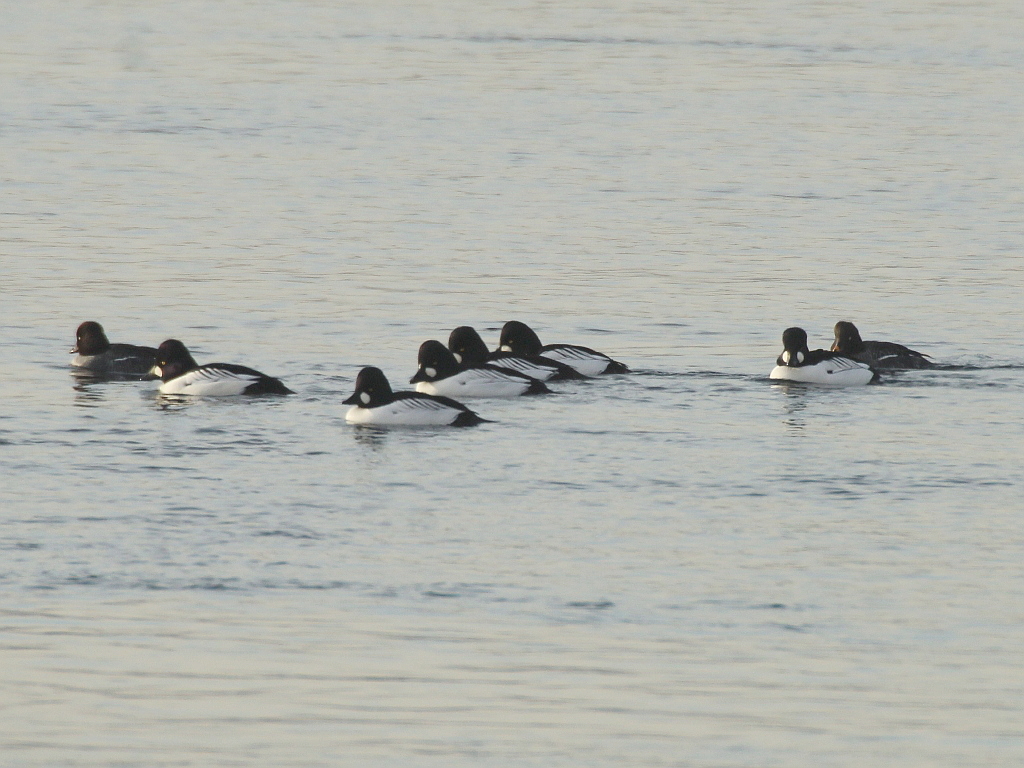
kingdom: Animalia
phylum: Chordata
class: Aves
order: Anseriformes
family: Anatidae
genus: Bucephala
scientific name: Bucephala clangula
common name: Common goldeneye
